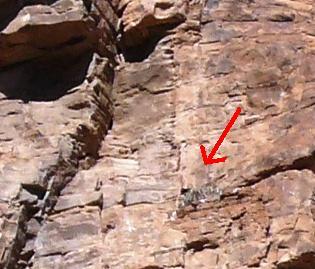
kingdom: Animalia
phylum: Chordata
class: Aves
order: Accipitriformes
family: Accipitridae
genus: Aquila
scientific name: Aquila verreauxii
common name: Verreaux's eagle
